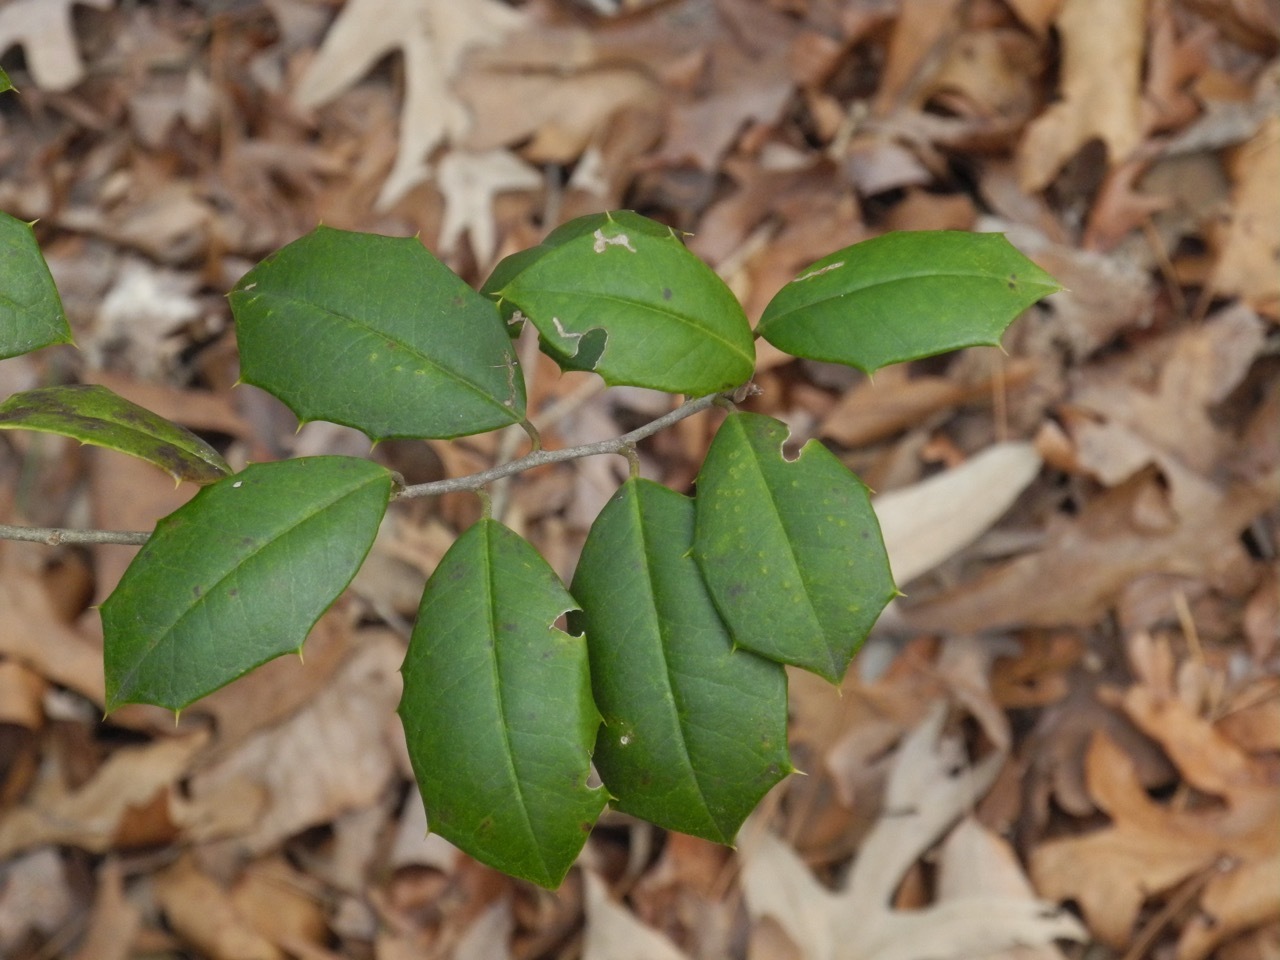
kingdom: Plantae
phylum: Tracheophyta
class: Magnoliopsida
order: Aquifoliales
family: Aquifoliaceae
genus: Ilex
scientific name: Ilex opaca
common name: American holly
